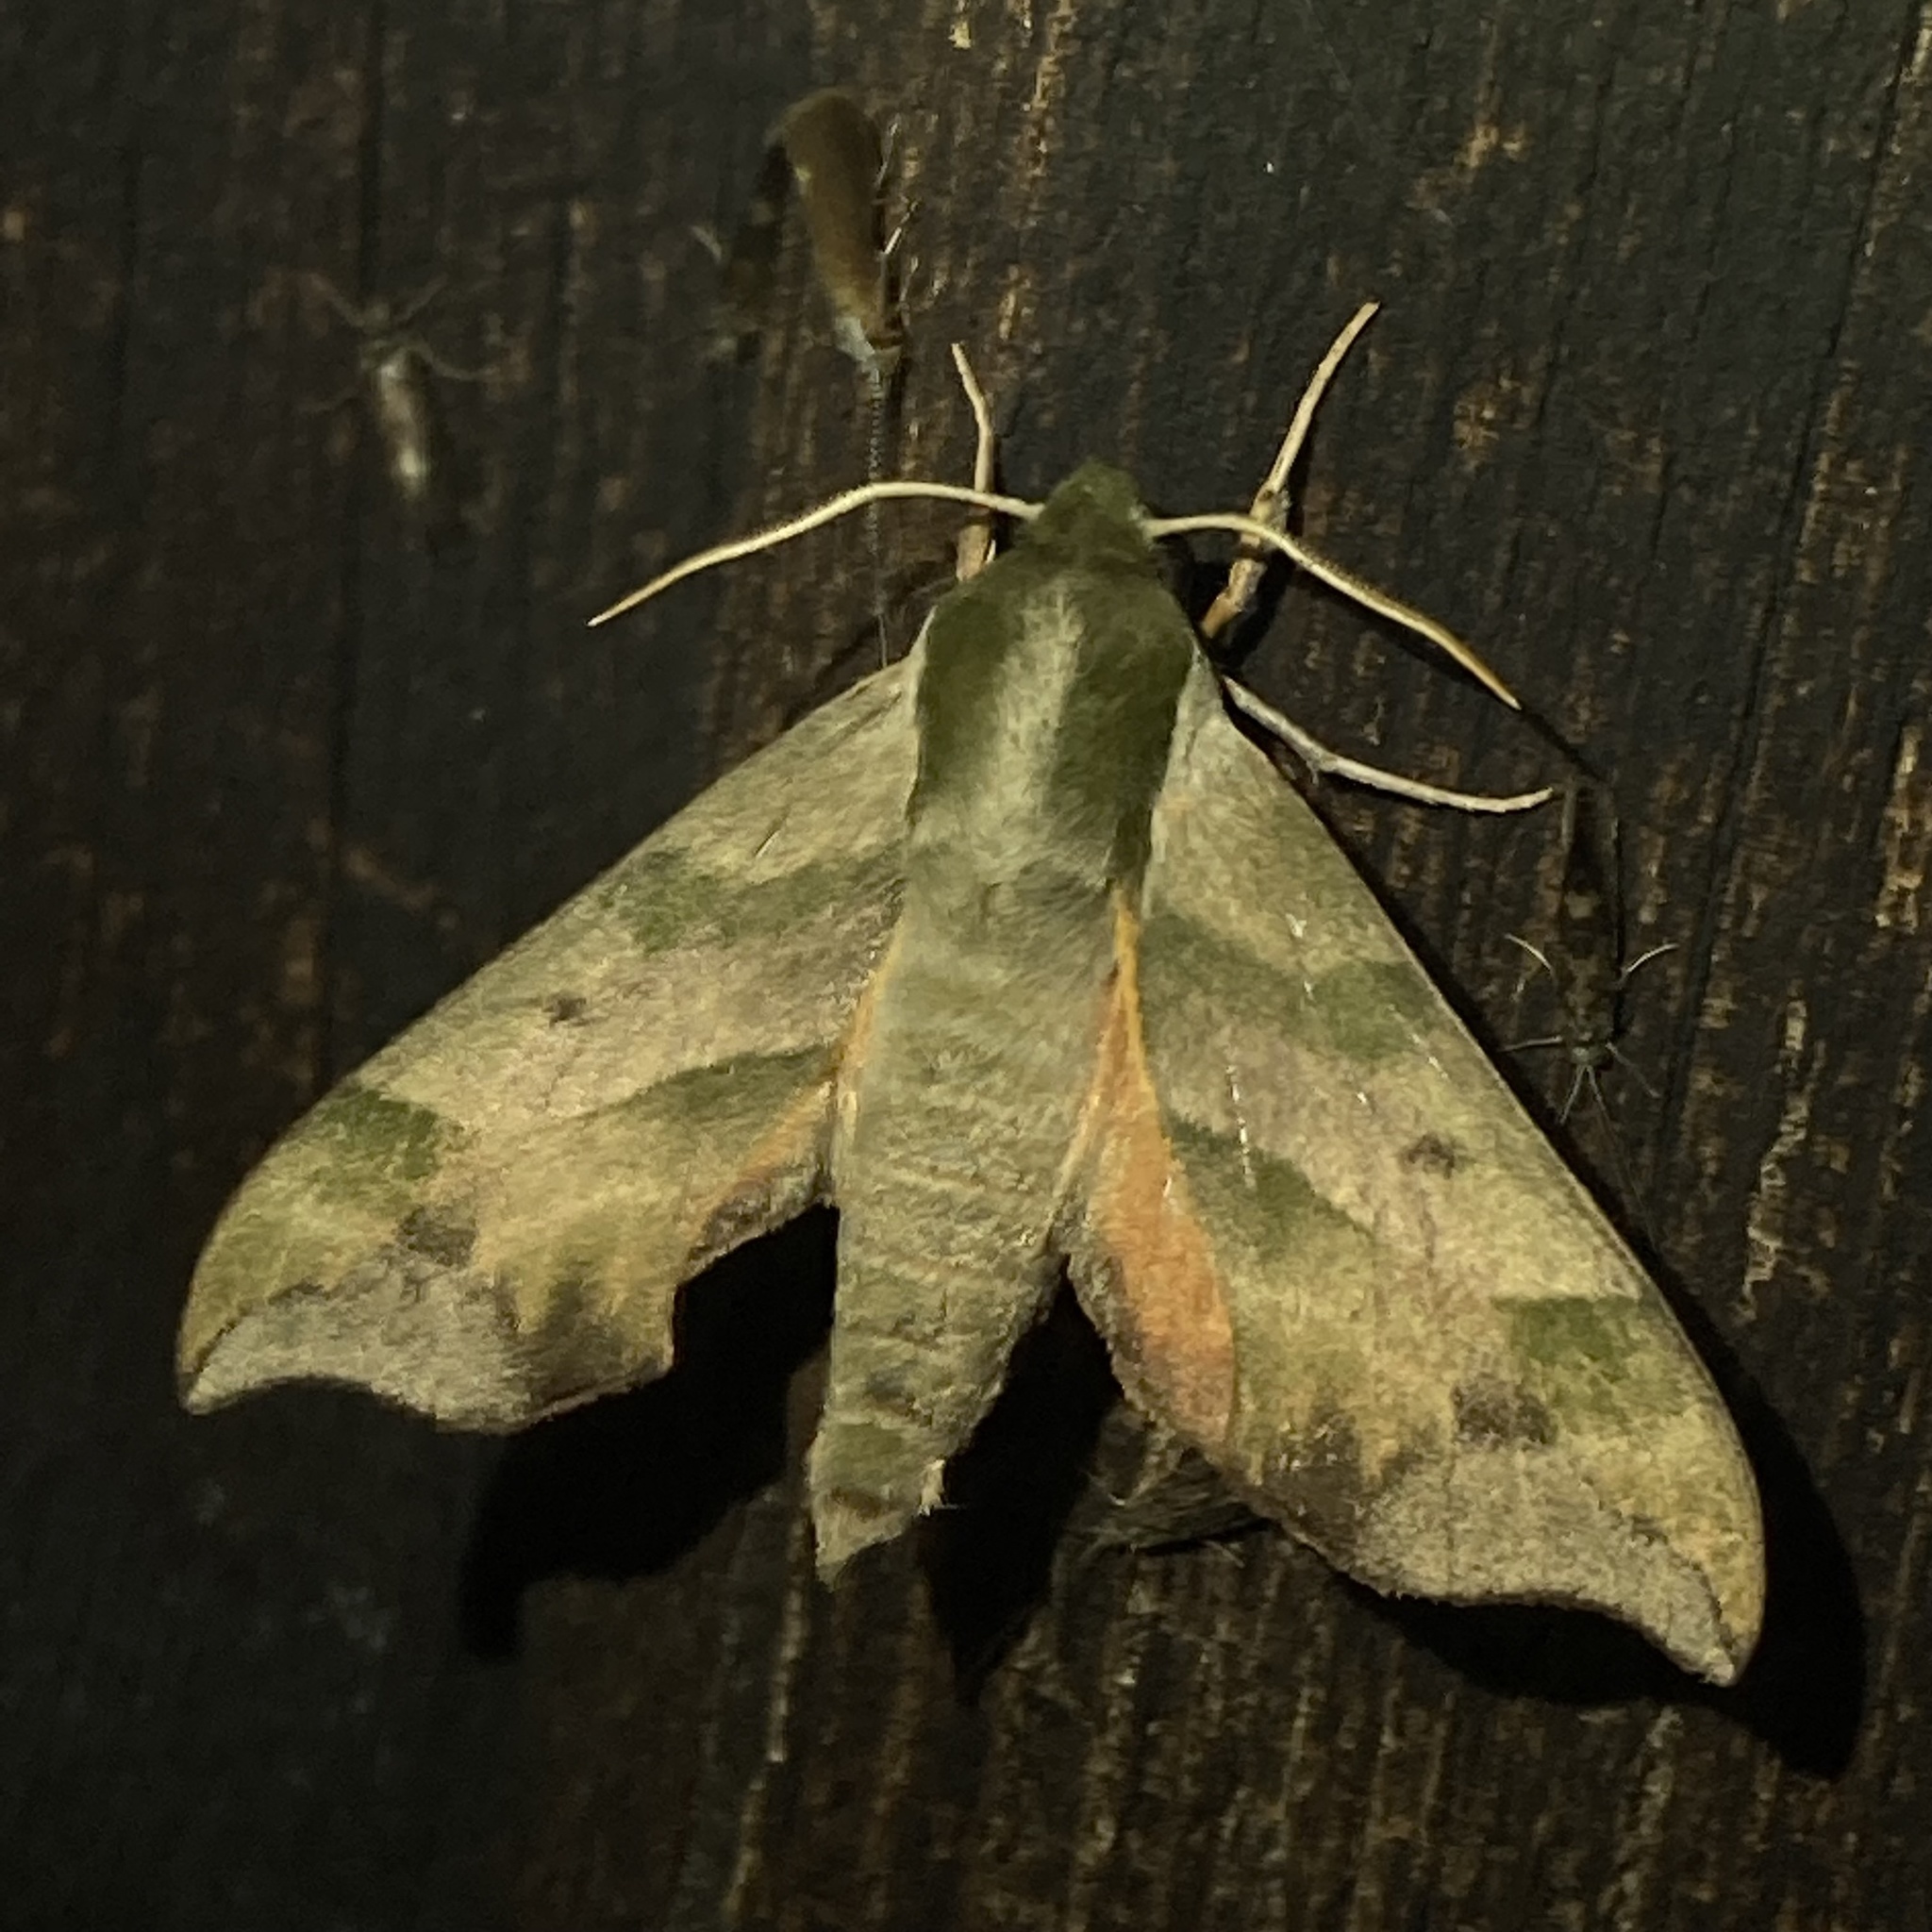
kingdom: Animalia
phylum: Arthropoda
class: Insecta
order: Lepidoptera
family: Sphingidae
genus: Darapsa
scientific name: Darapsa myron
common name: Hog sphinx
